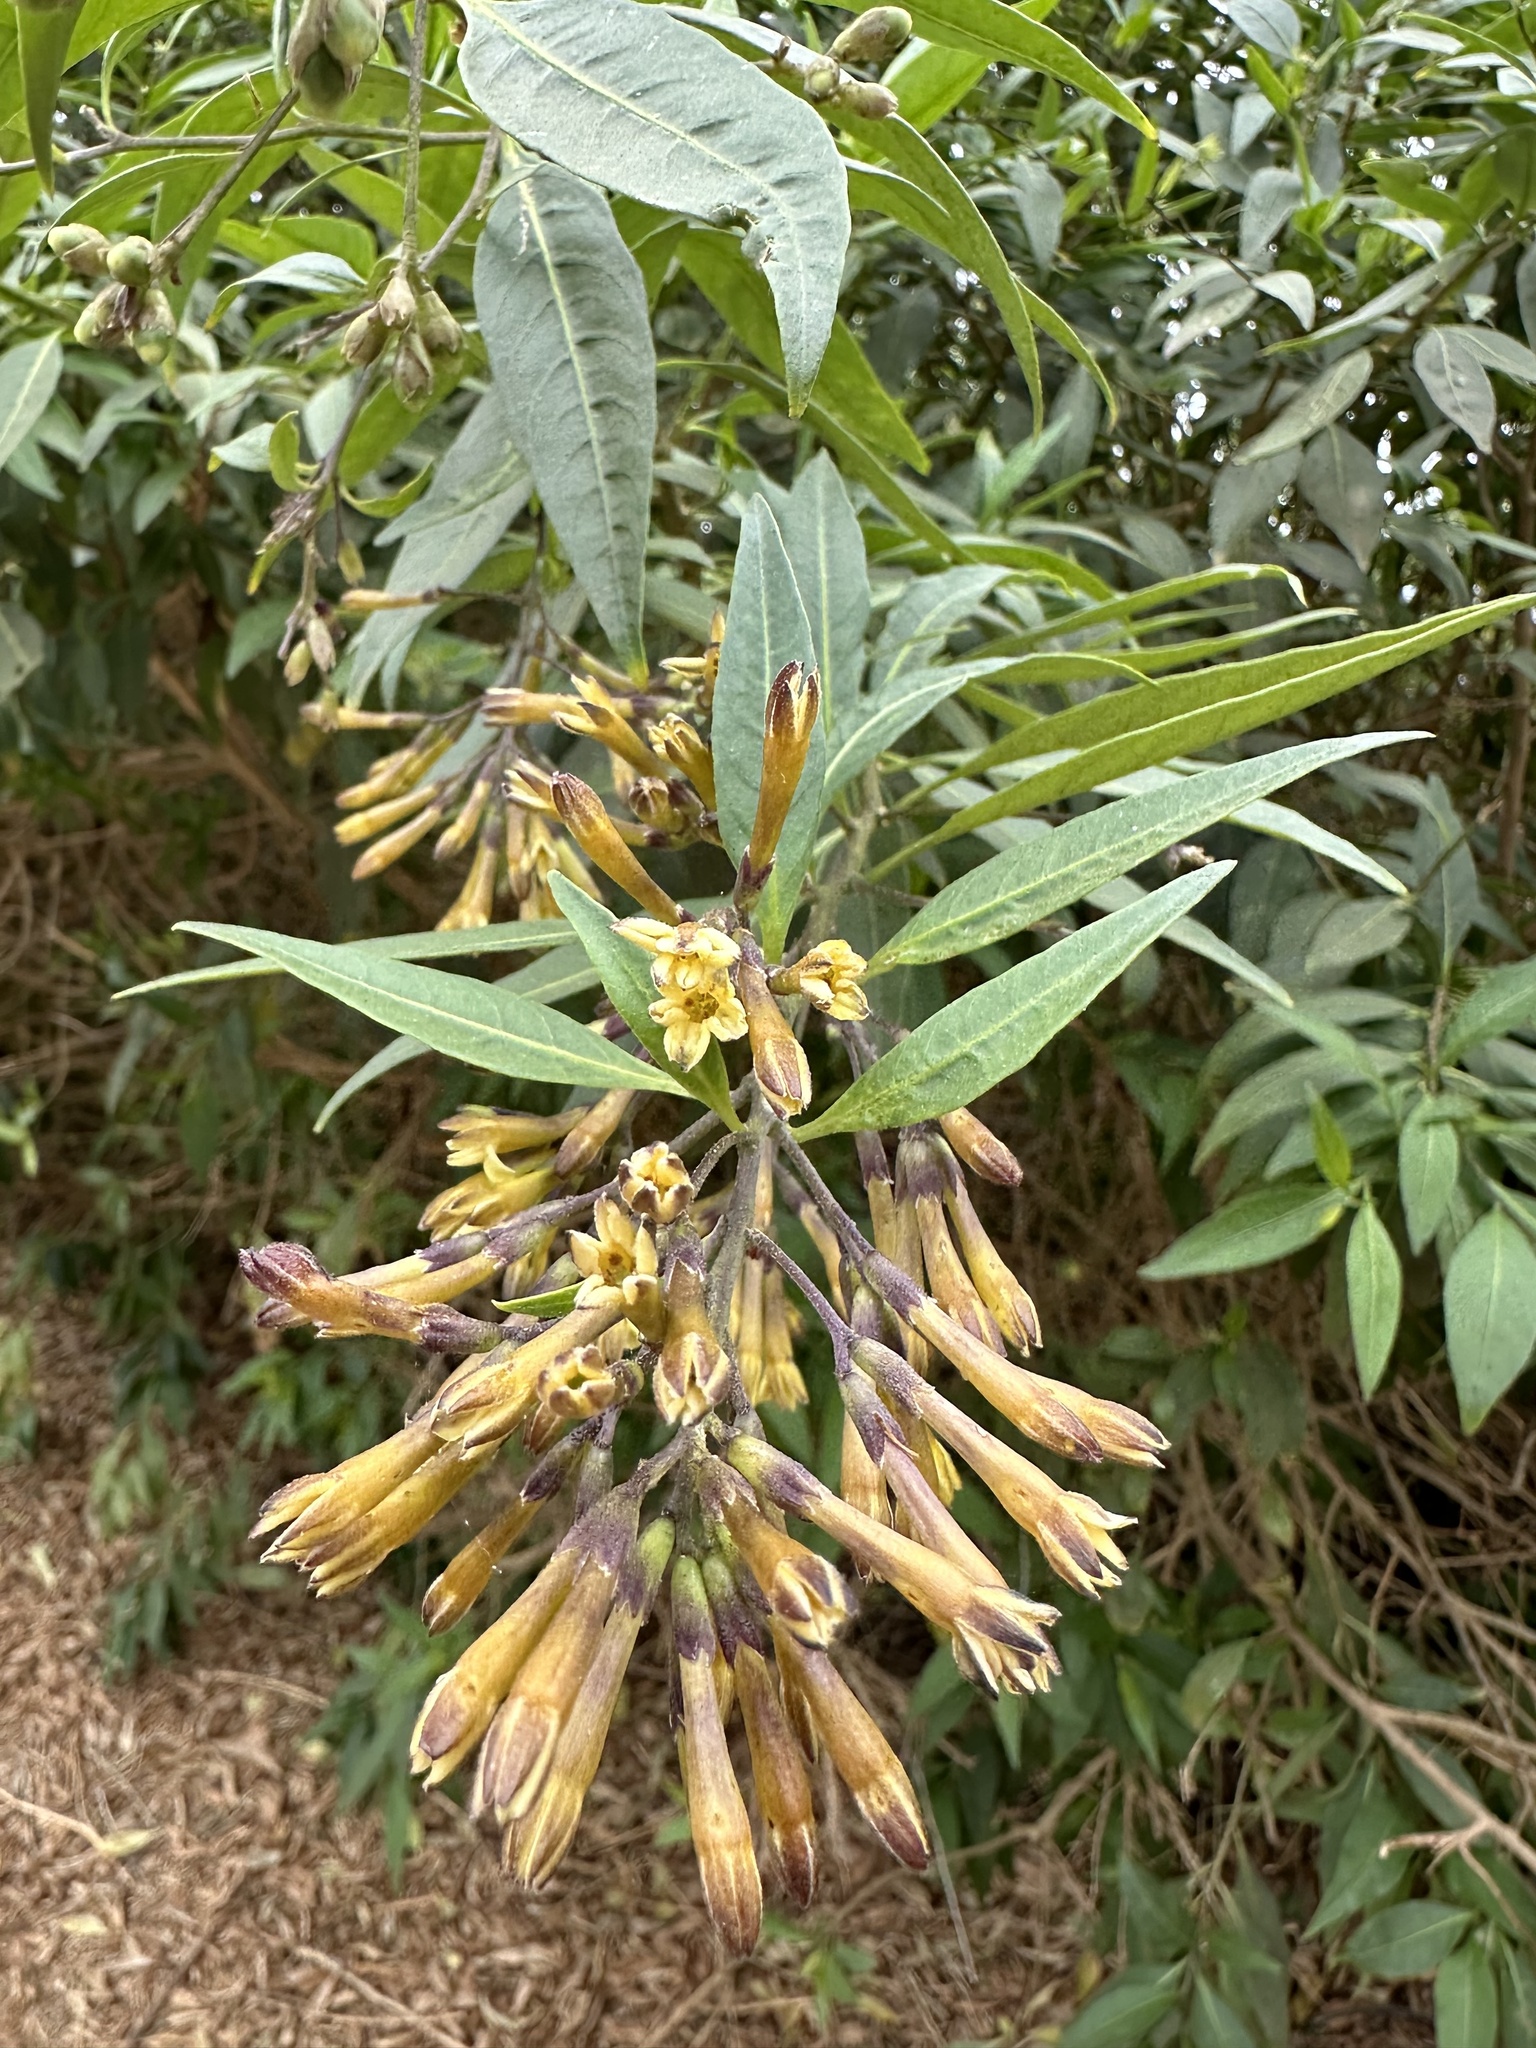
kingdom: Plantae
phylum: Tracheophyta
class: Magnoliopsida
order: Solanales
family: Solanaceae
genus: Cestrum
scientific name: Cestrum parqui
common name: Chilean cestrum
